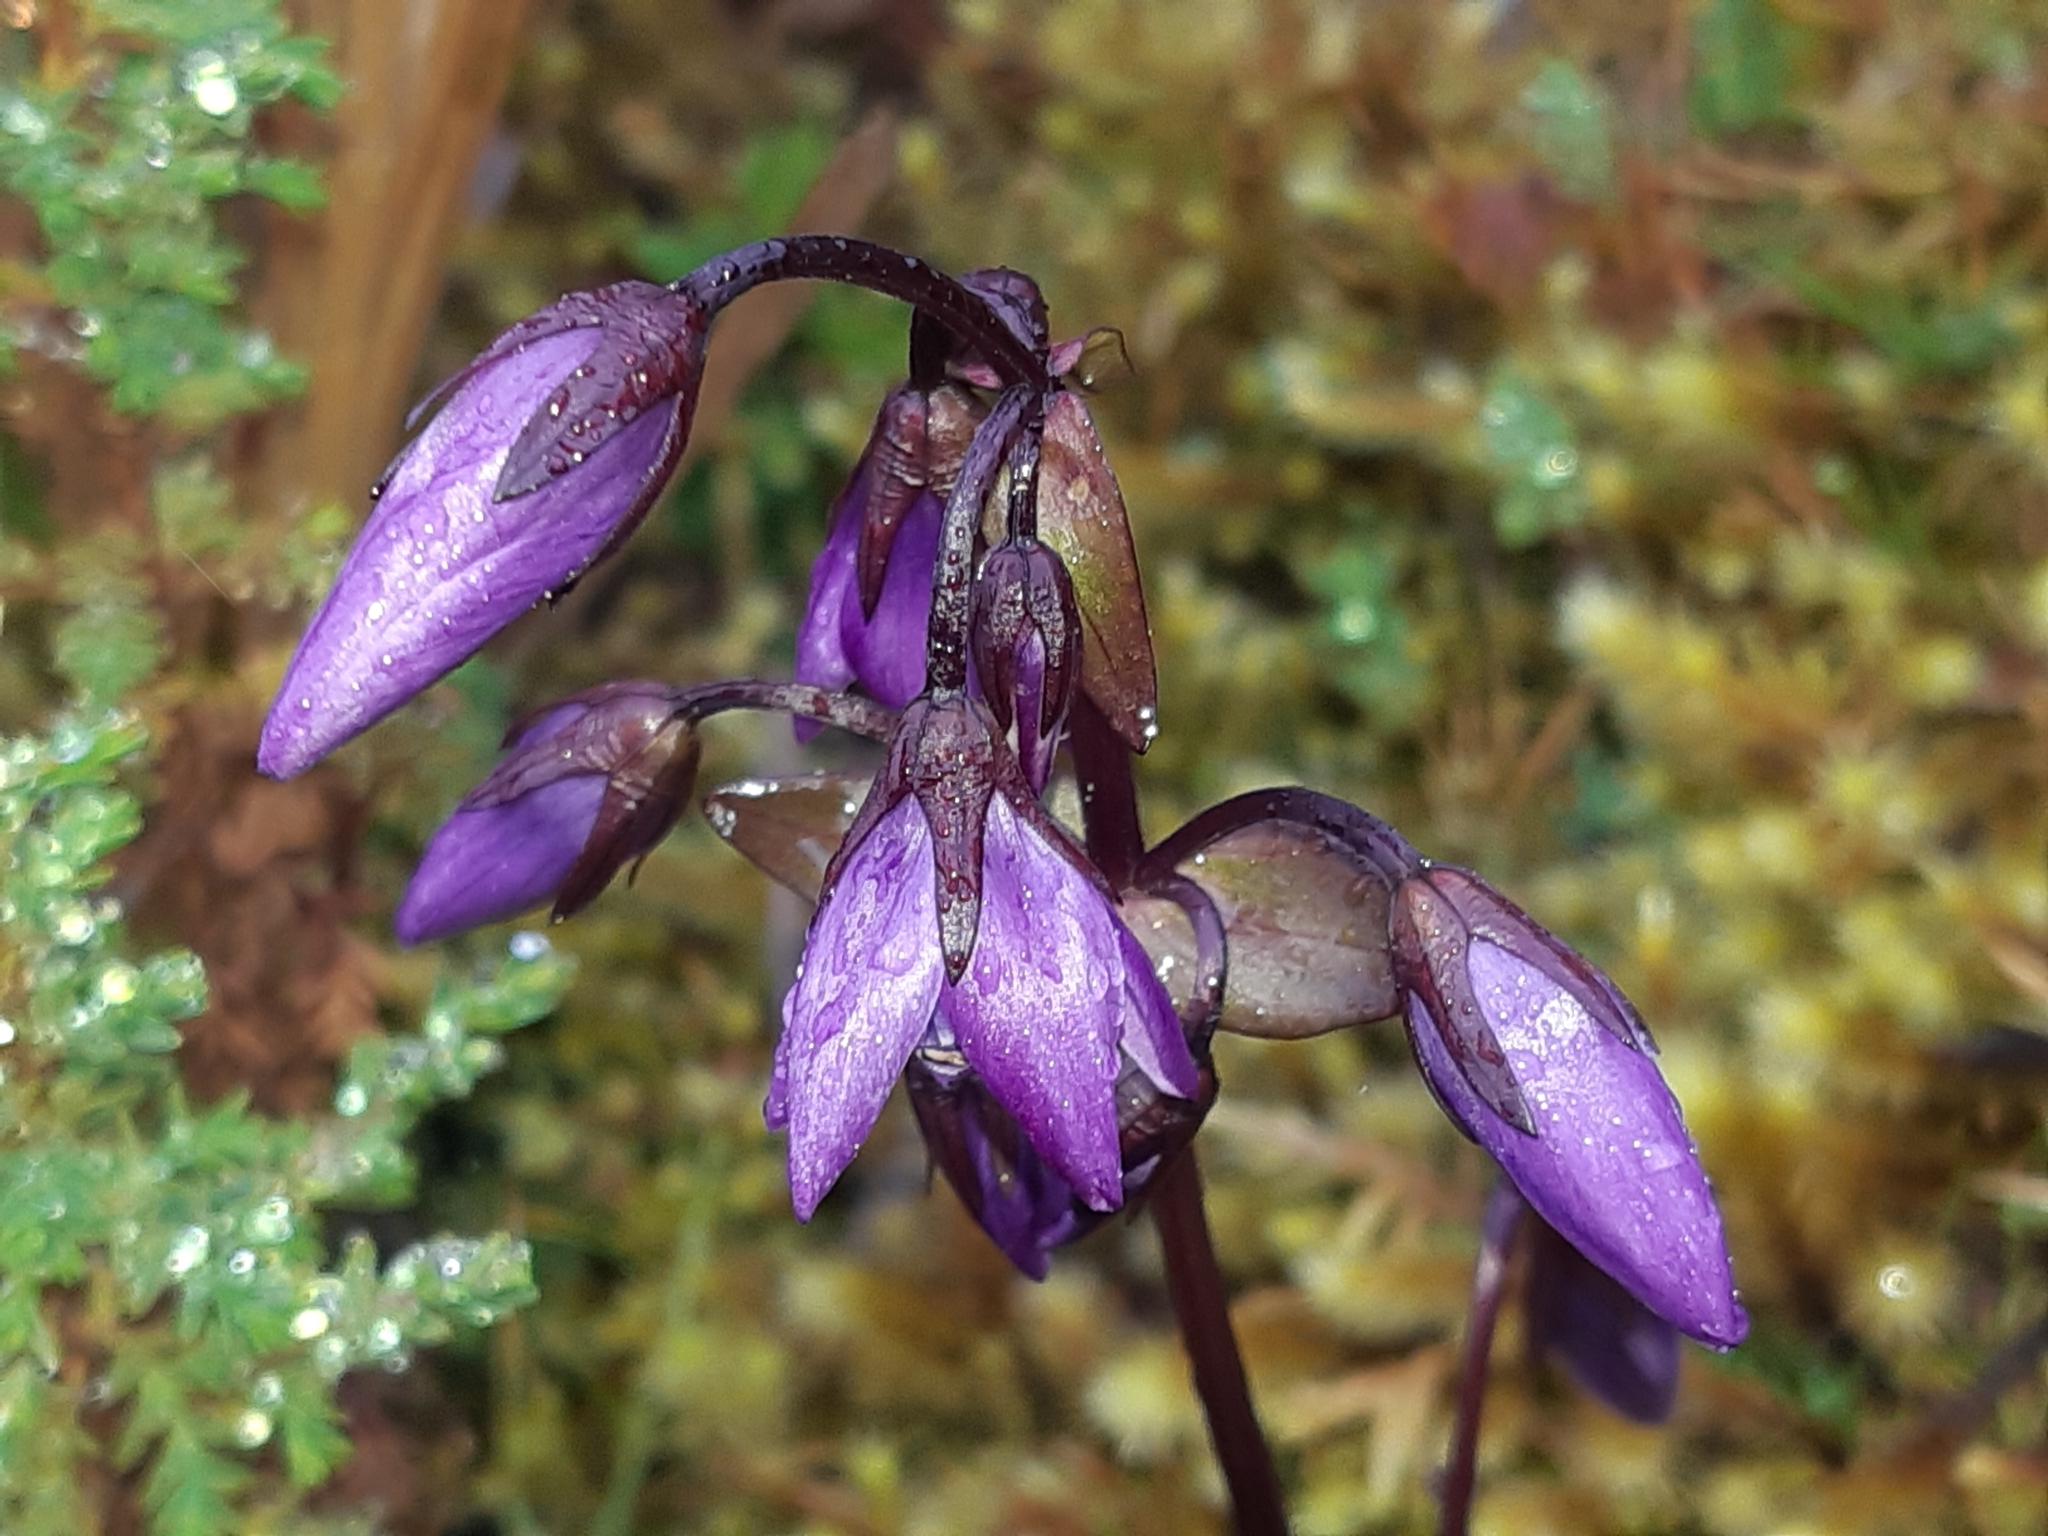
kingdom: Plantae
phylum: Tracheophyta
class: Magnoliopsida
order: Gentianales
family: Gentianaceae
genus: Gentianella
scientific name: Gentianella rapunculoides
